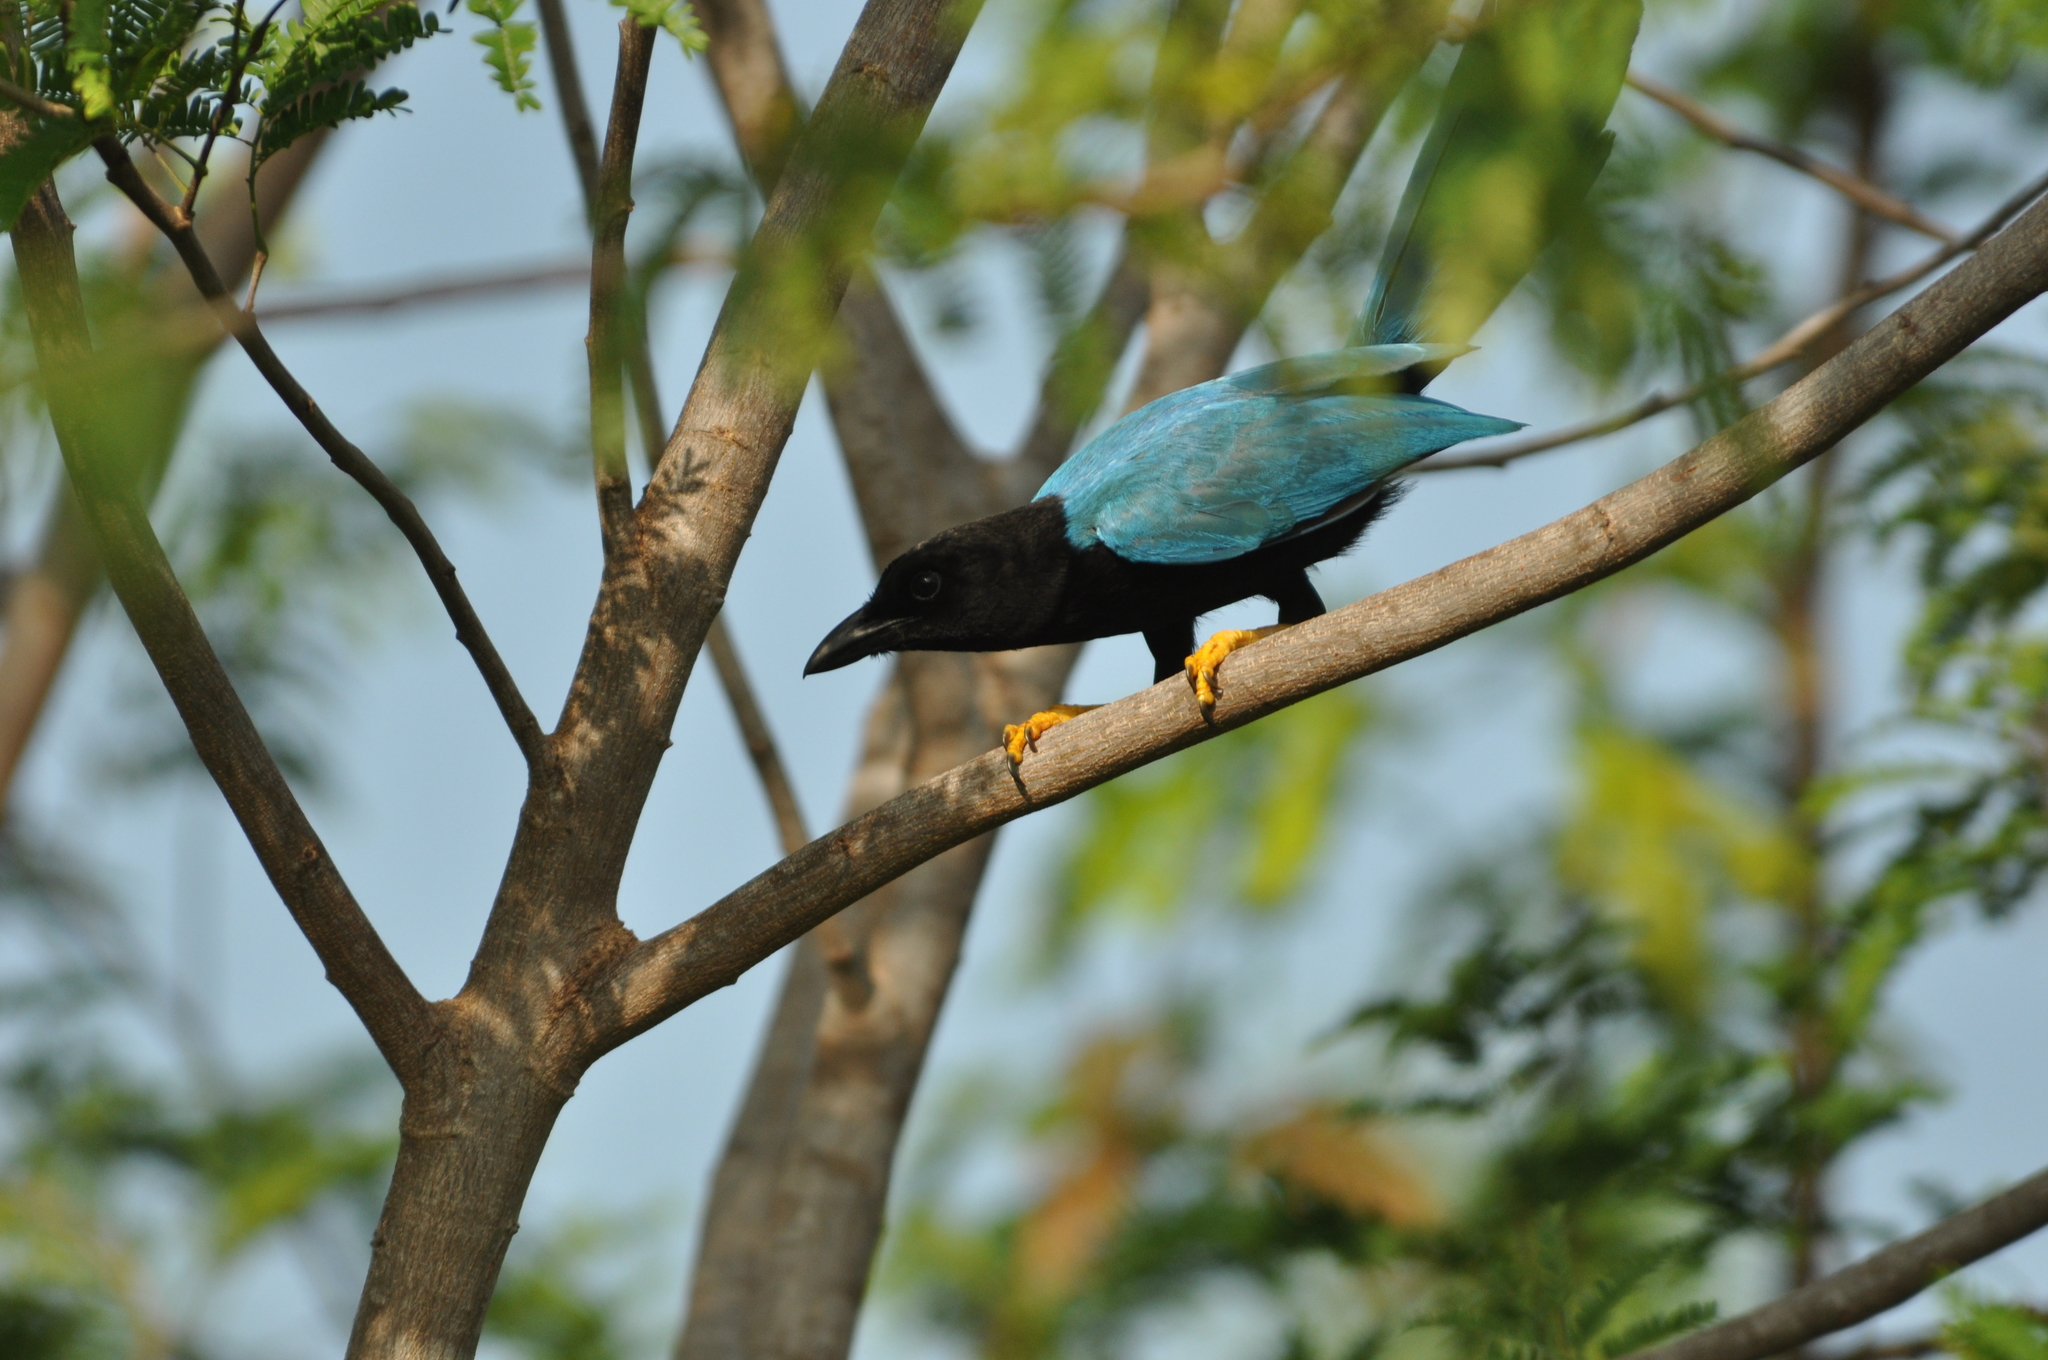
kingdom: Animalia
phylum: Chordata
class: Aves
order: Passeriformes
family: Corvidae
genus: Cyanocorax
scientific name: Cyanocorax yucatanicus
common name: Yucatan jay
